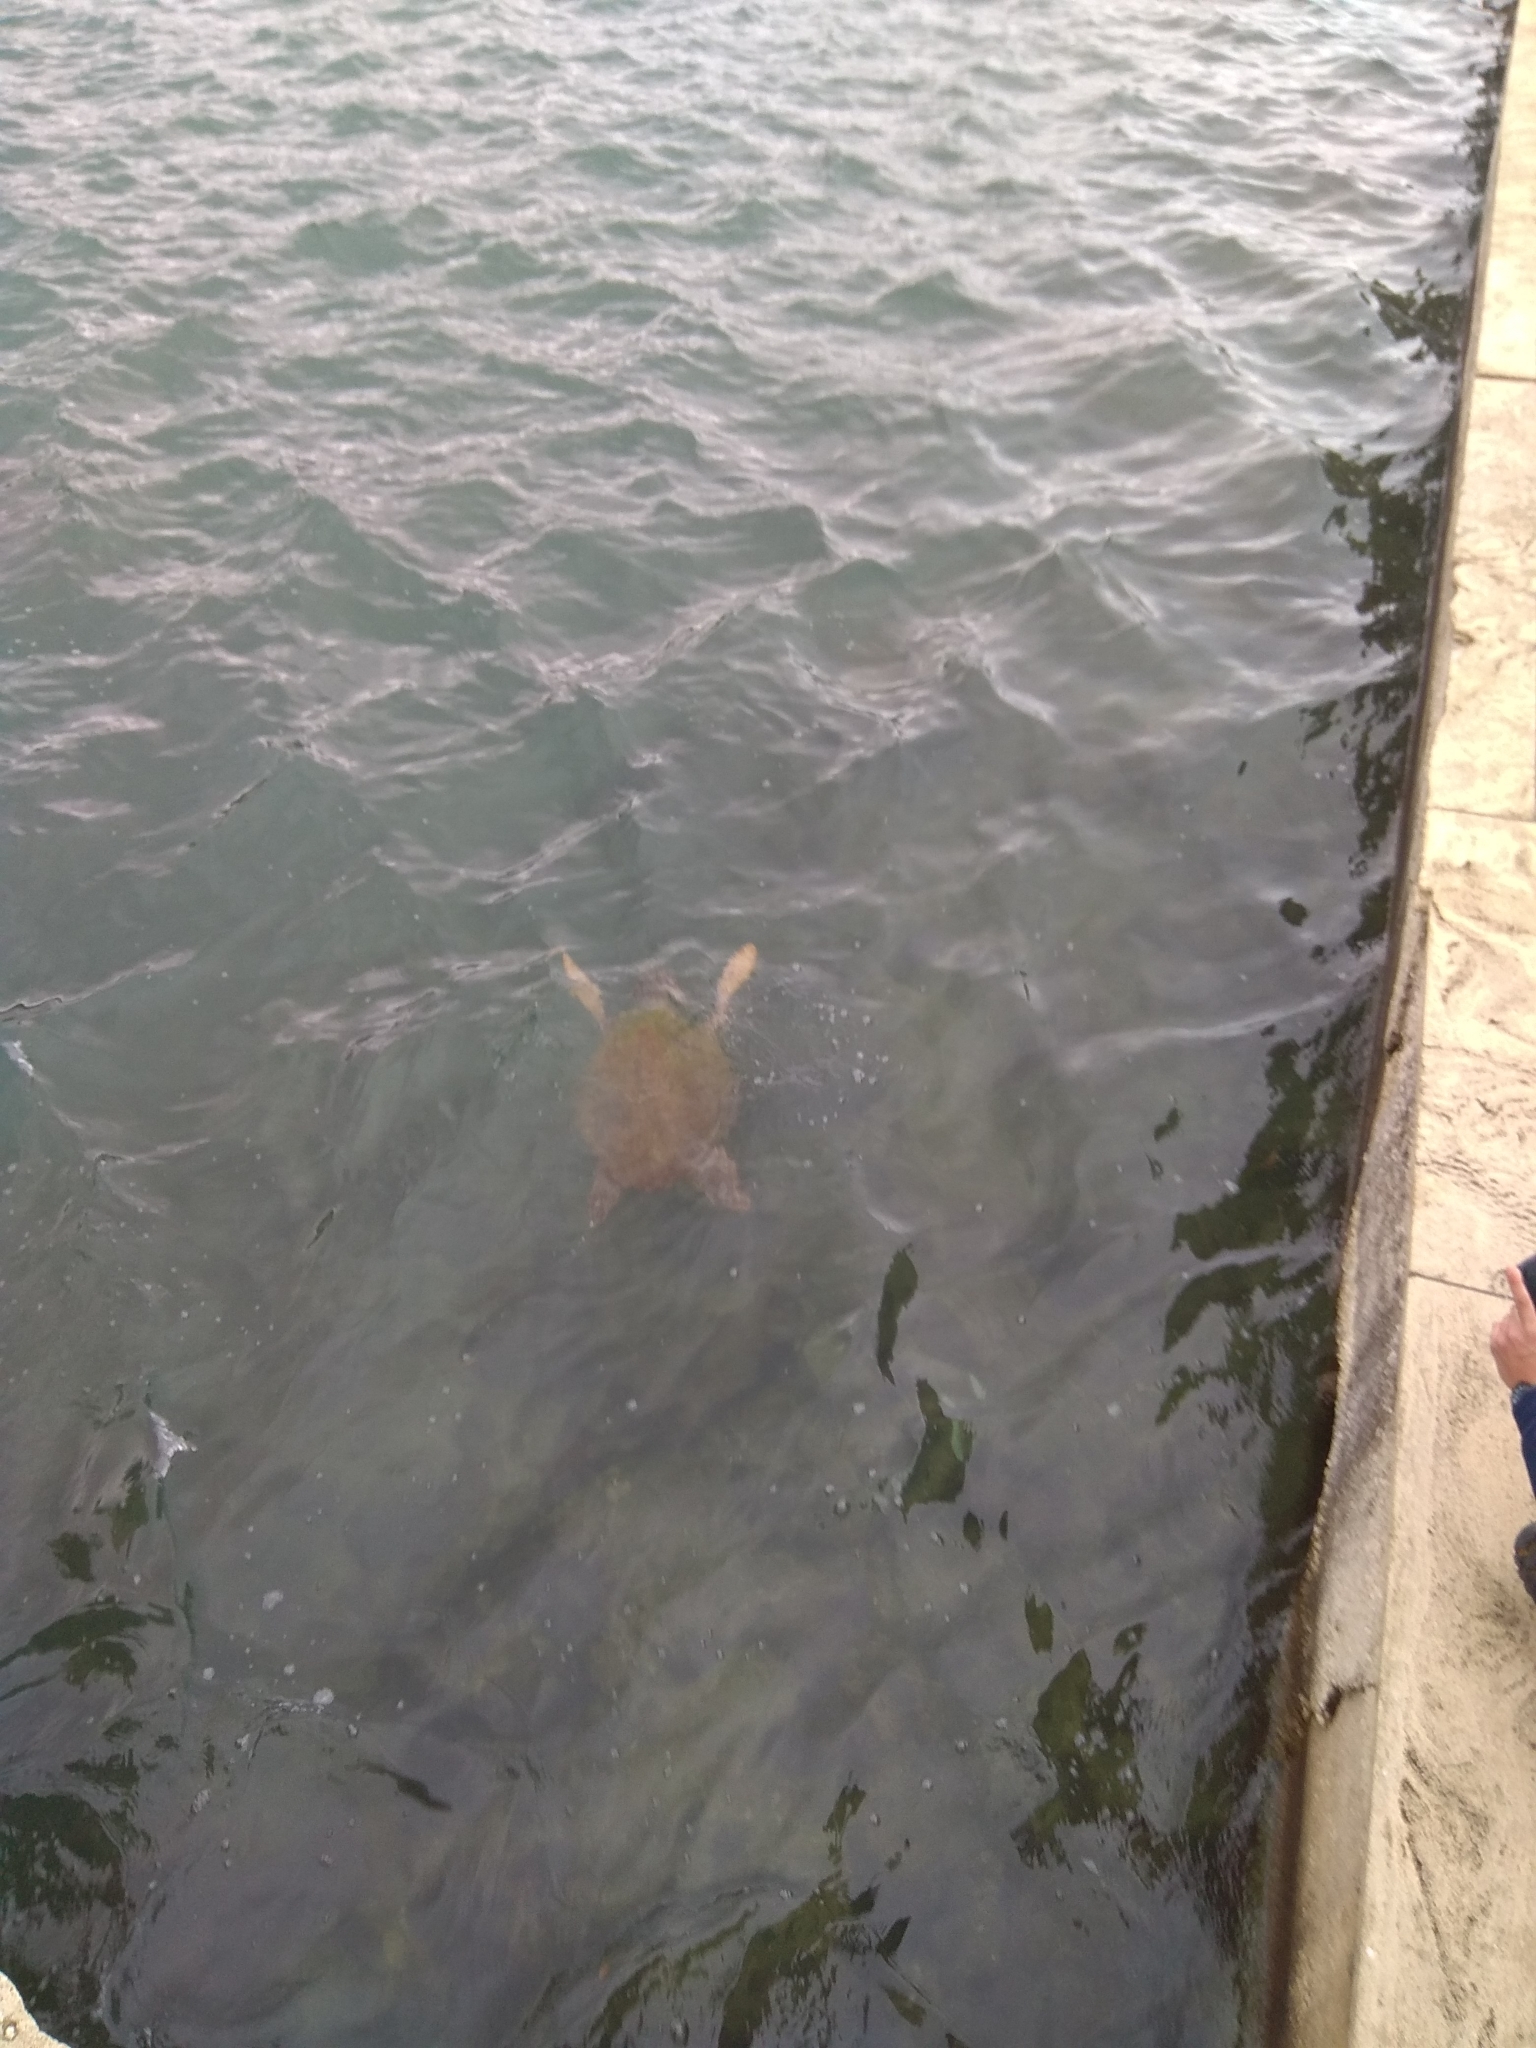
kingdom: Animalia
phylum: Chordata
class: Testudines
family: Cheloniidae
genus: Caretta
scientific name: Caretta caretta
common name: Loggerhead sea turtle
